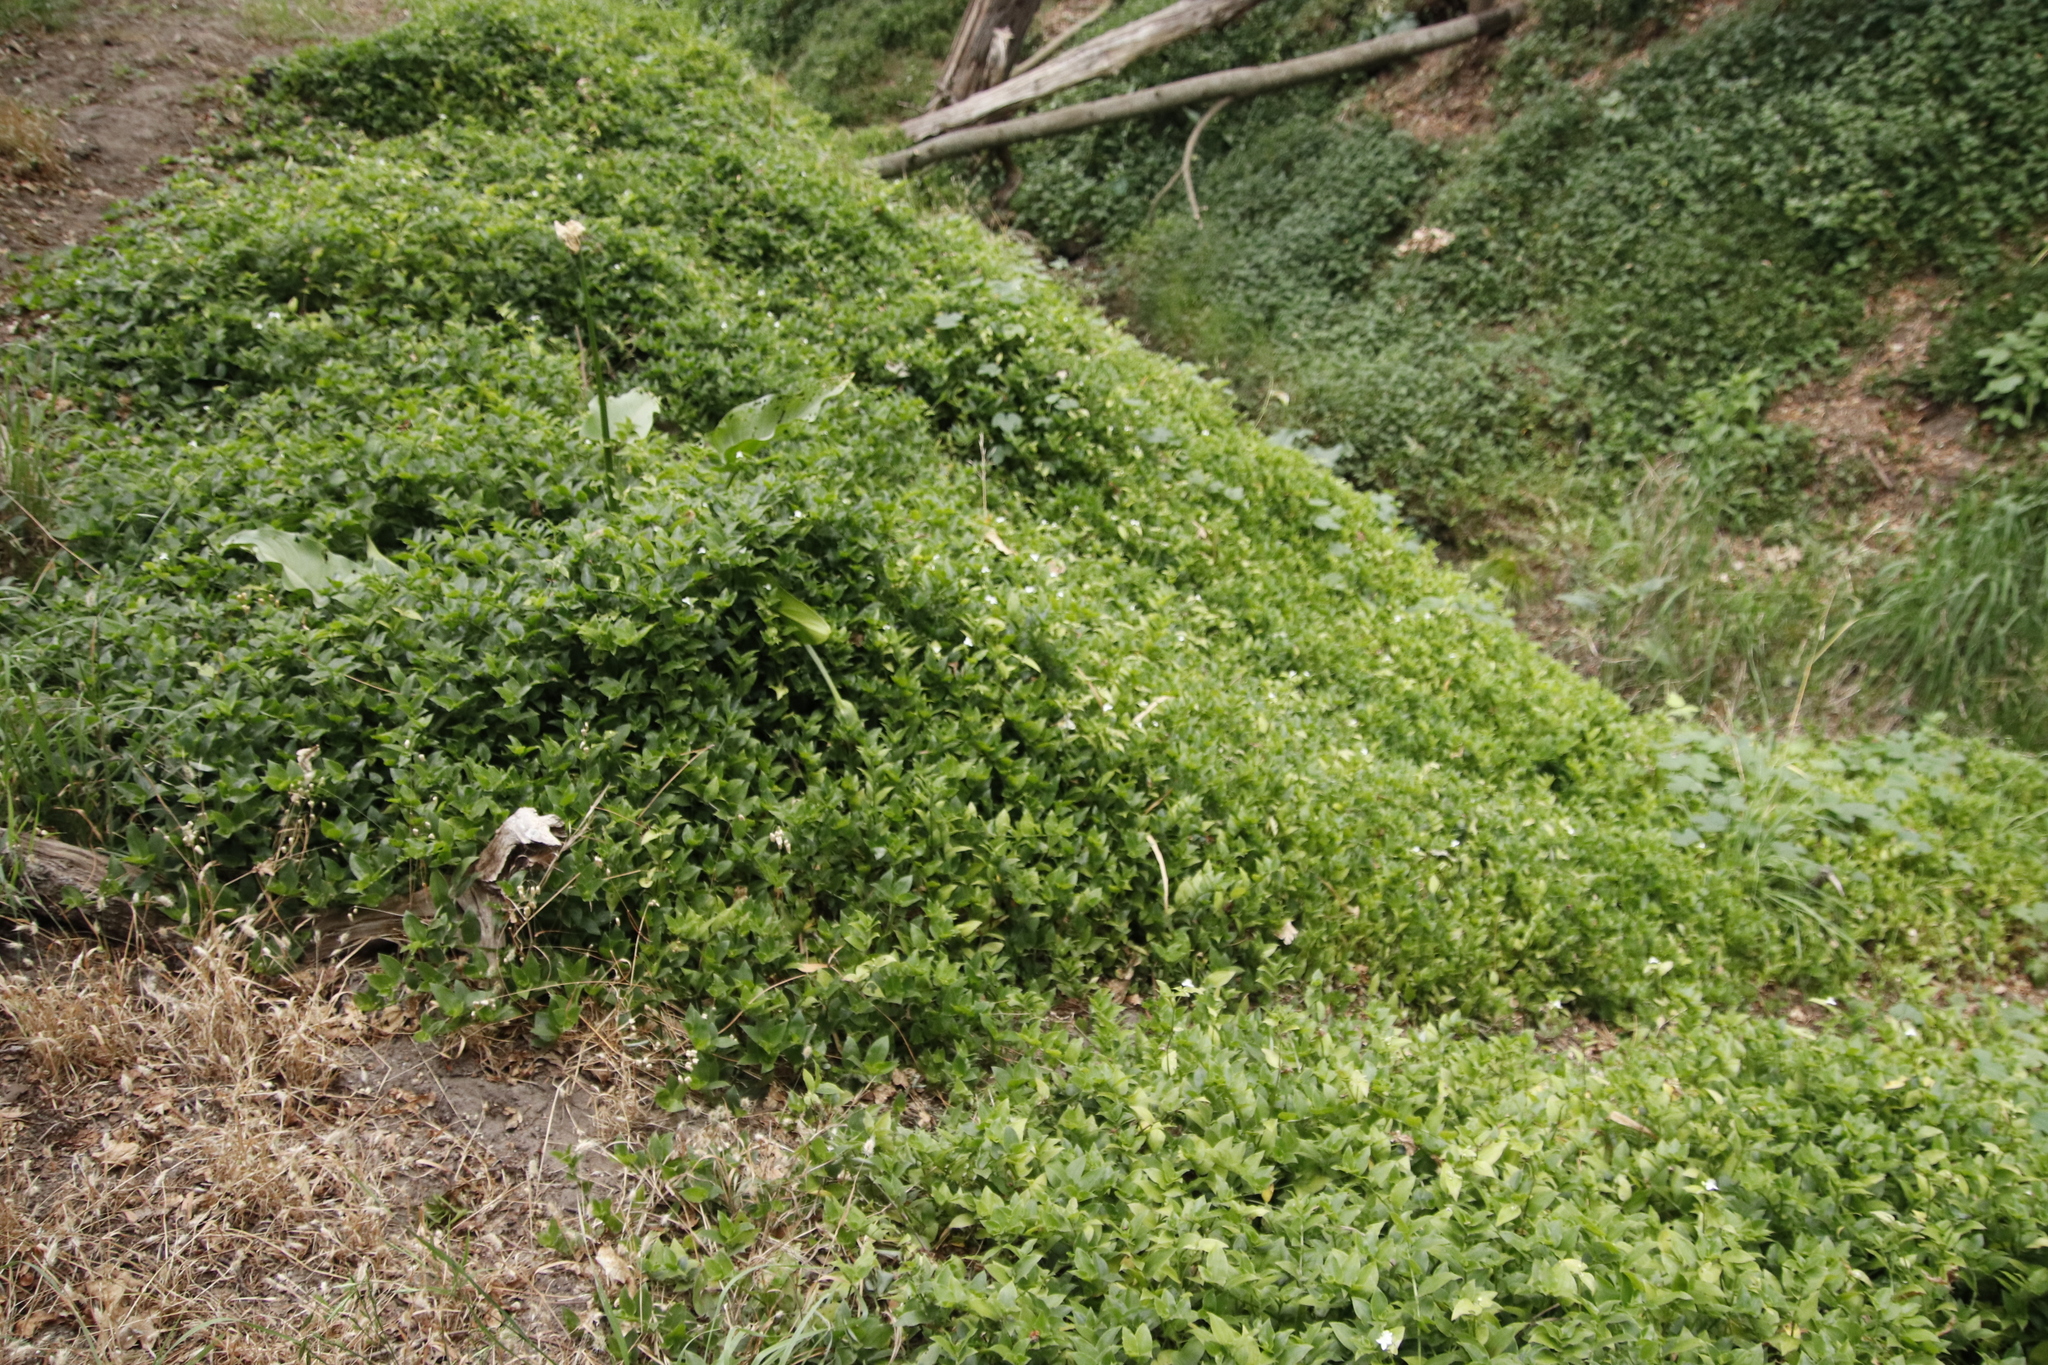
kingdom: Plantae
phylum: Tracheophyta
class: Liliopsida
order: Commelinales
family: Commelinaceae
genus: Tradescantia
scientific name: Tradescantia fluminensis
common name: Wandering-jew
